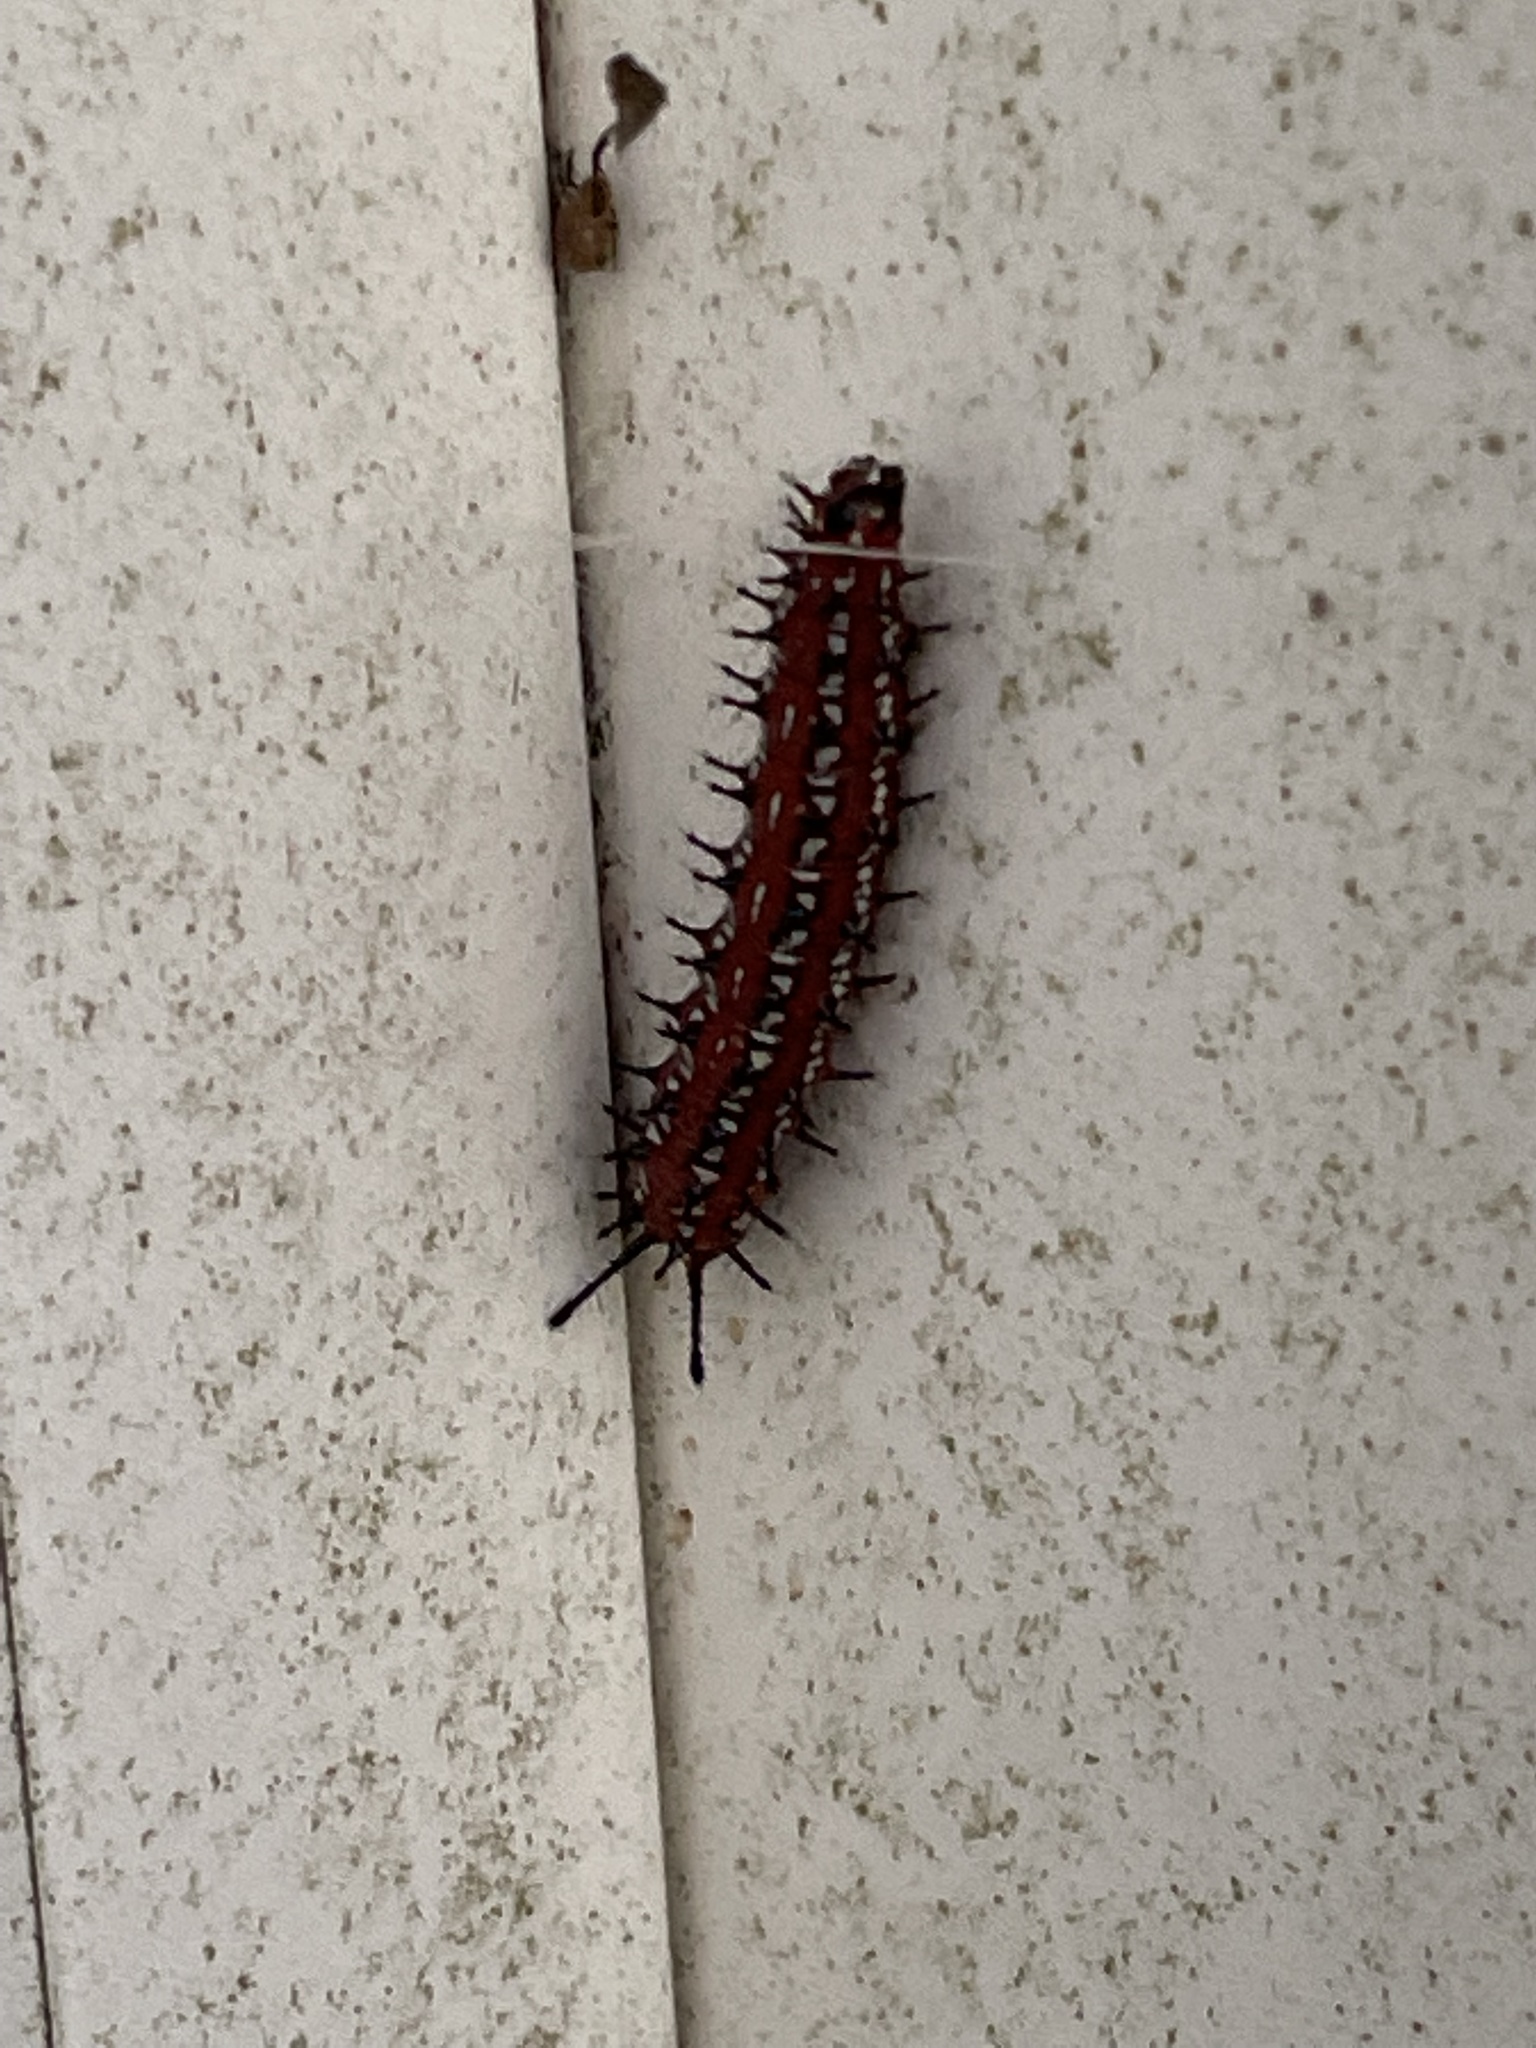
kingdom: Animalia
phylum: Arthropoda
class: Insecta
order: Lepidoptera
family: Nymphalidae
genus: Euptoieta
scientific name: Euptoieta claudia
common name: Variegated fritillary
